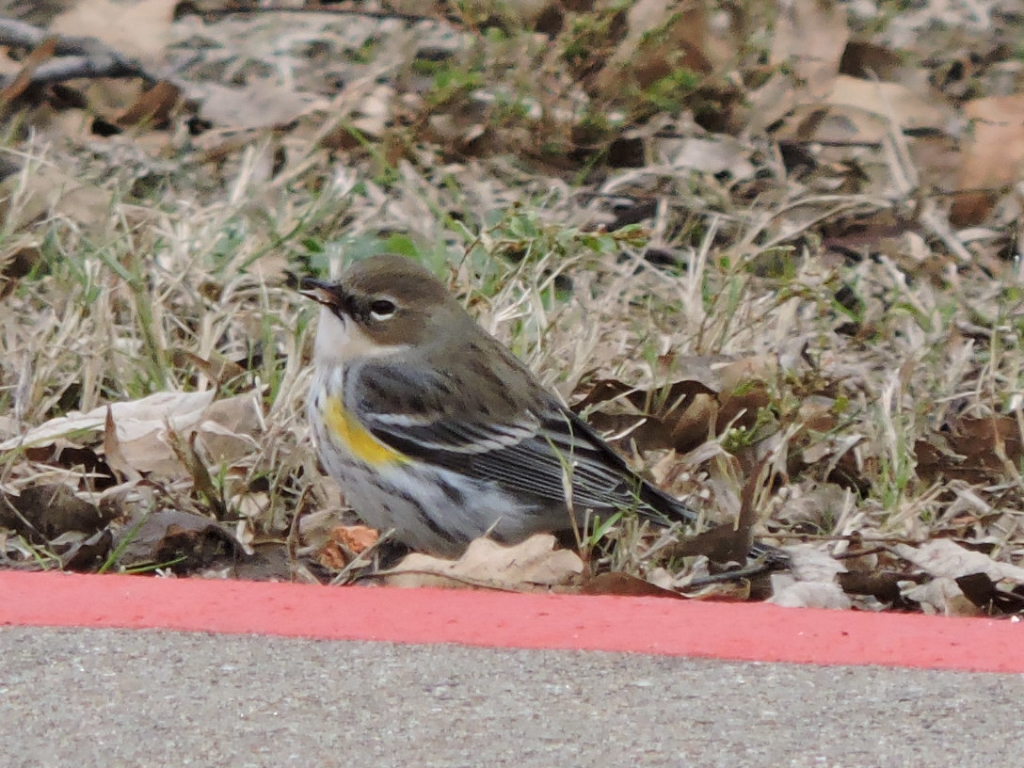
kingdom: Animalia
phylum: Chordata
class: Aves
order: Passeriformes
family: Parulidae
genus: Setophaga
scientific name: Setophaga coronata
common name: Myrtle warbler
